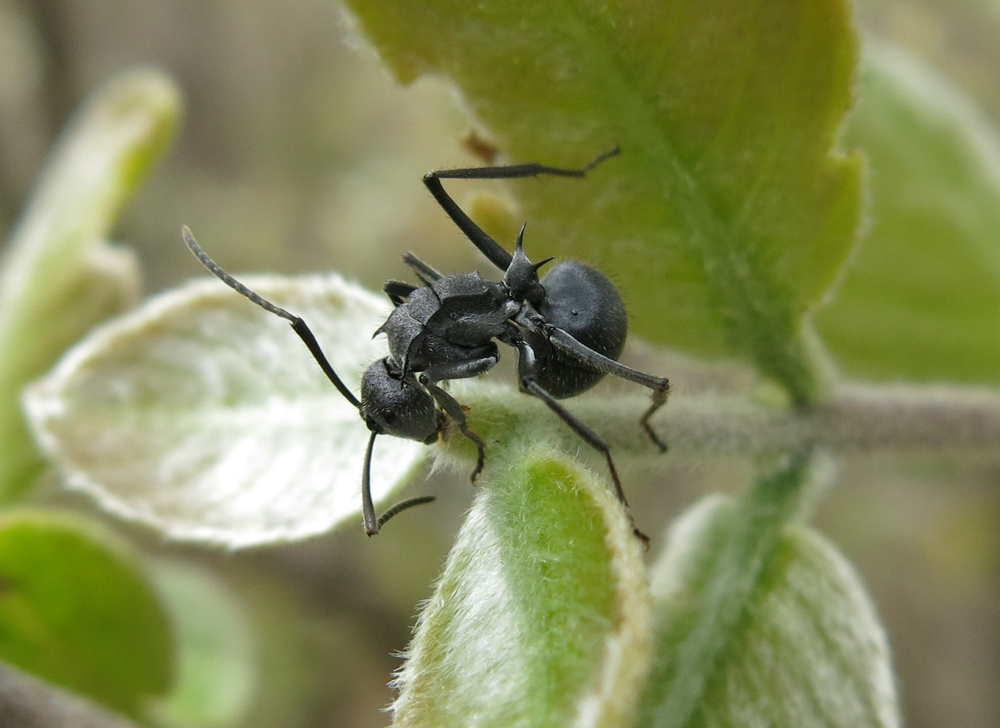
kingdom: Animalia
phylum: Arthropoda
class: Insecta
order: Hymenoptera
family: Formicidae
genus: Polyrhachis
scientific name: Polyrhachis schistacea
